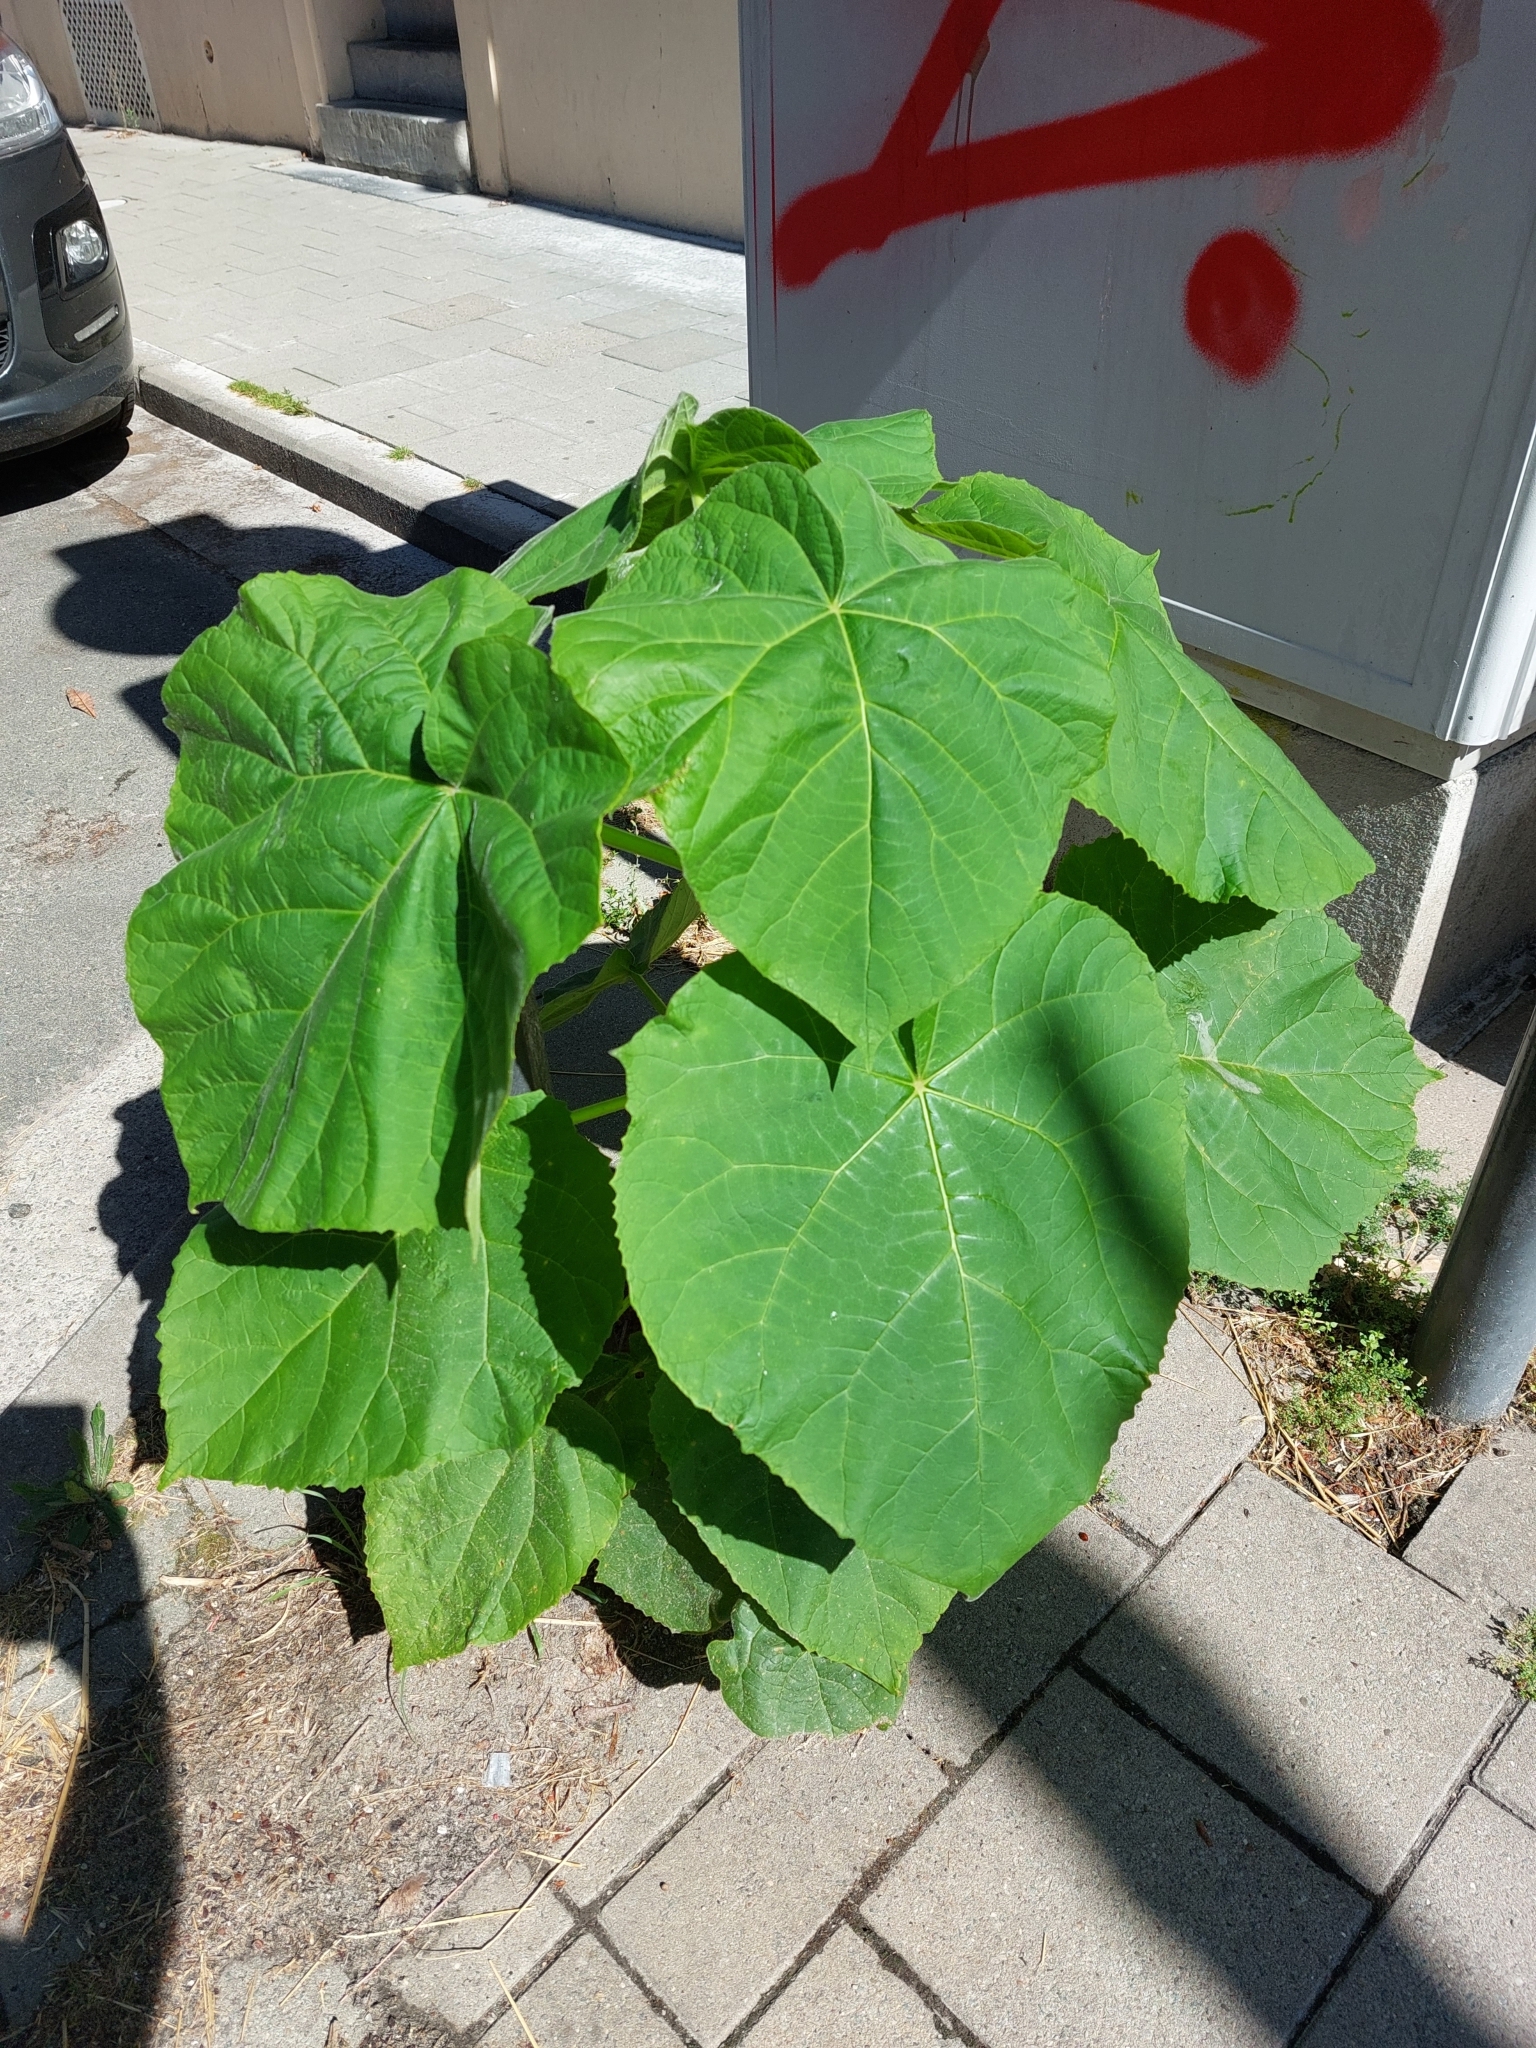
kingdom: Plantae
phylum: Tracheophyta
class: Magnoliopsida
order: Lamiales
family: Paulowniaceae
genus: Paulownia
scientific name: Paulownia tomentosa
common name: Foxglove-tree
